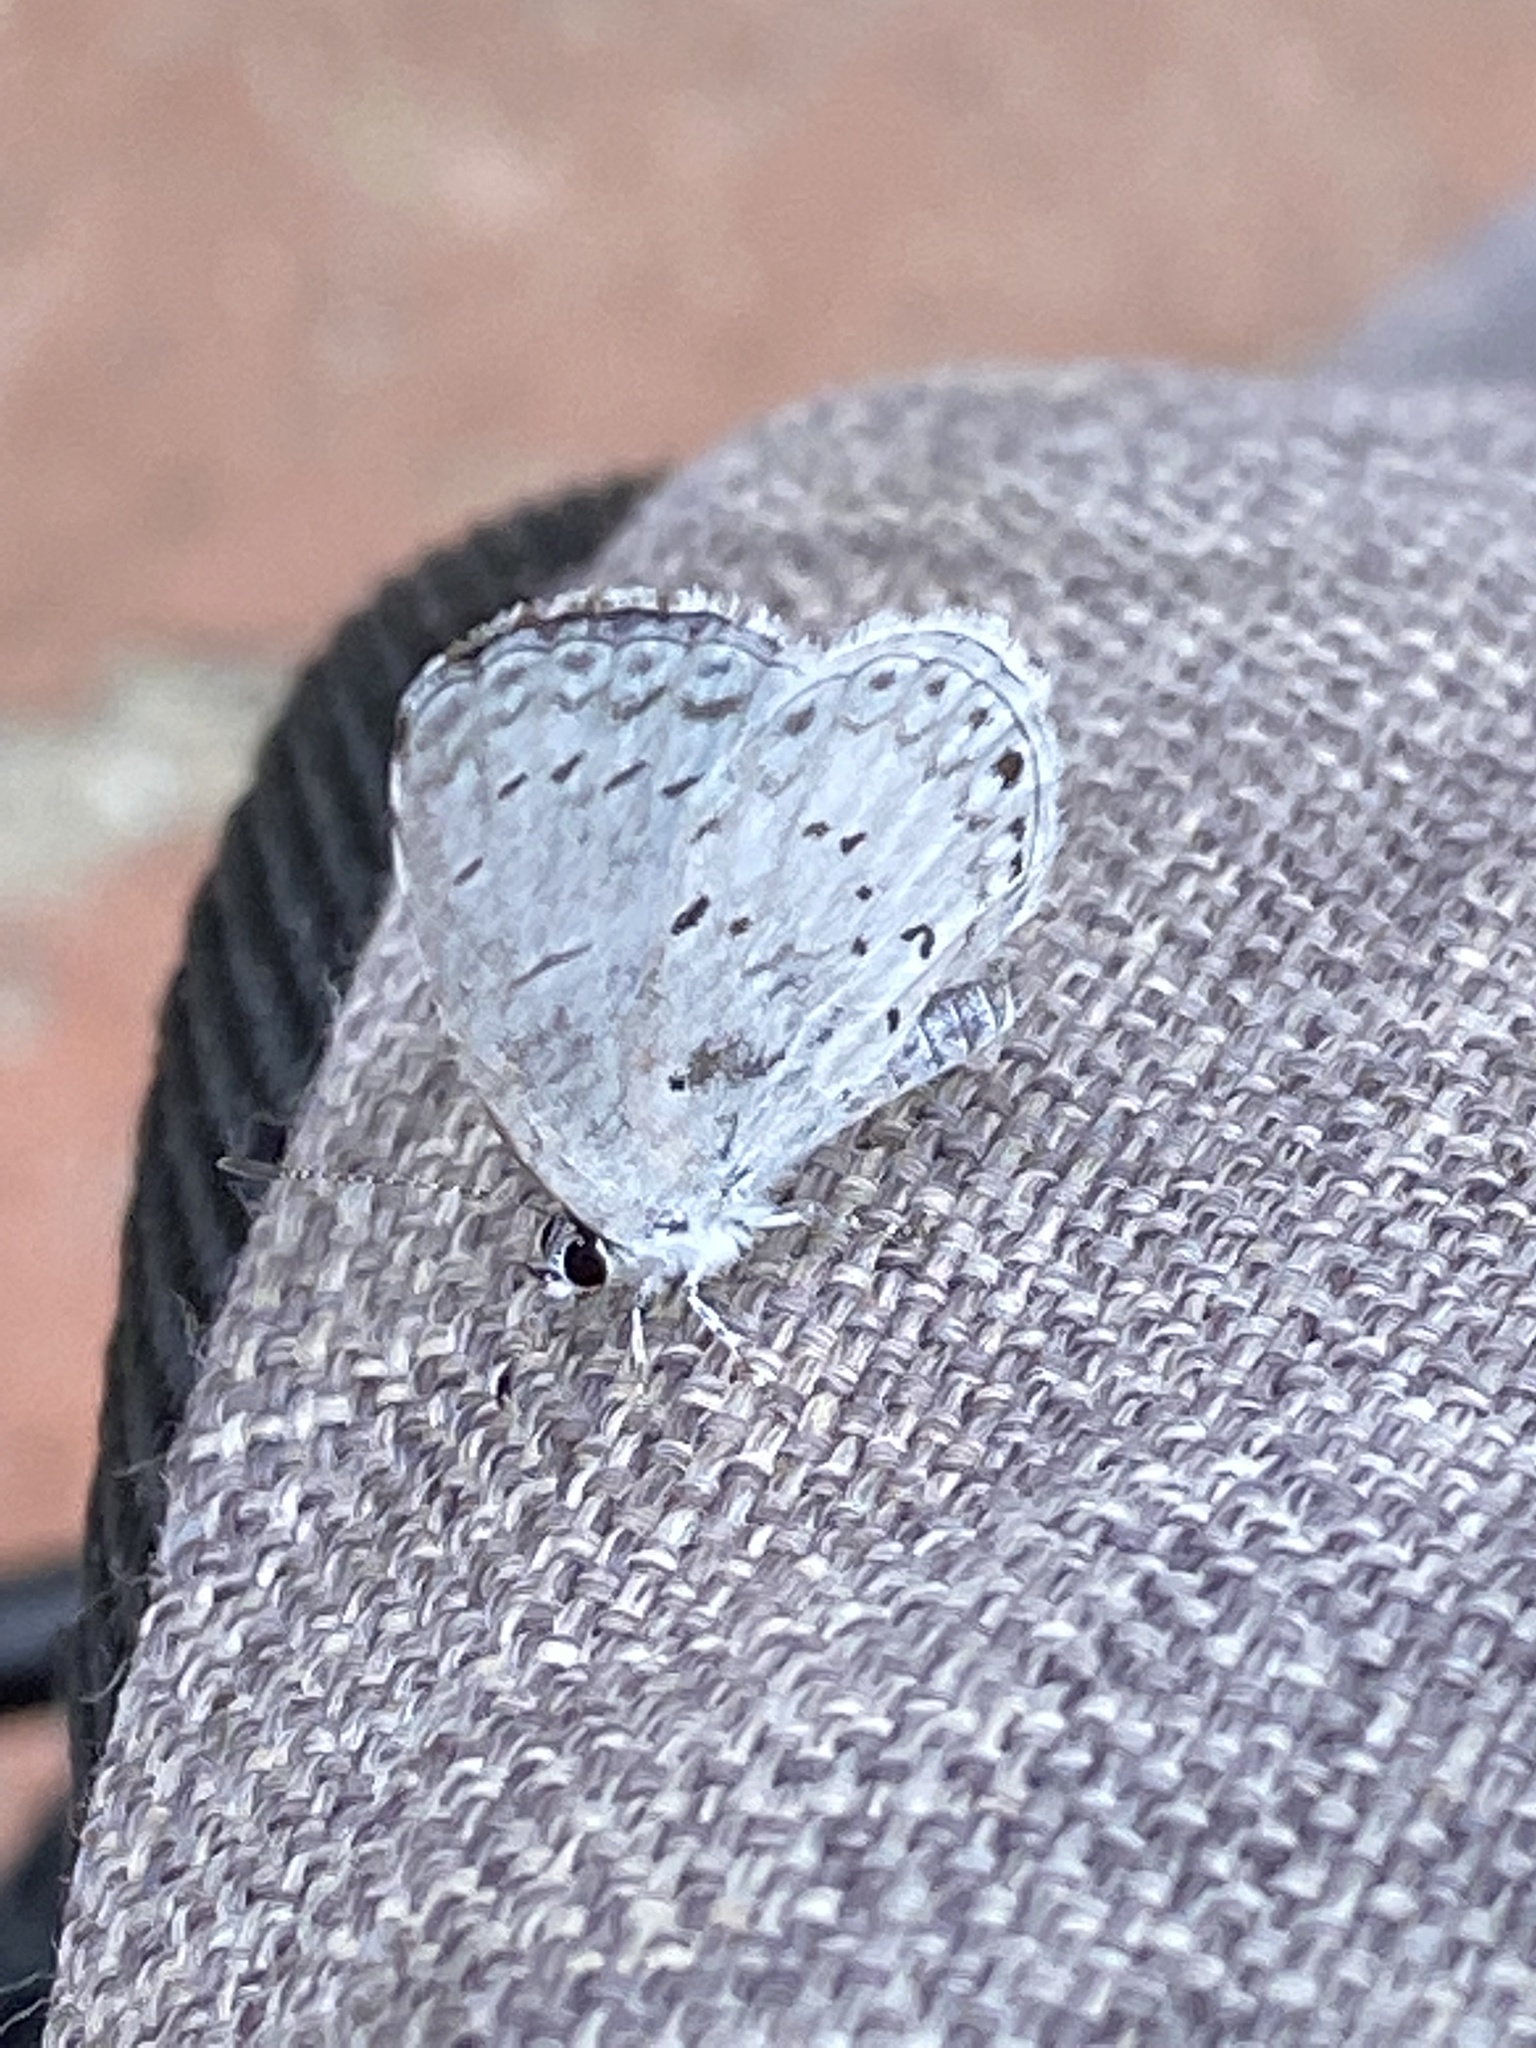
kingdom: Animalia
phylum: Arthropoda
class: Insecta
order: Lepidoptera
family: Lycaenidae
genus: Cyaniris
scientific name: Cyaniris neglecta
